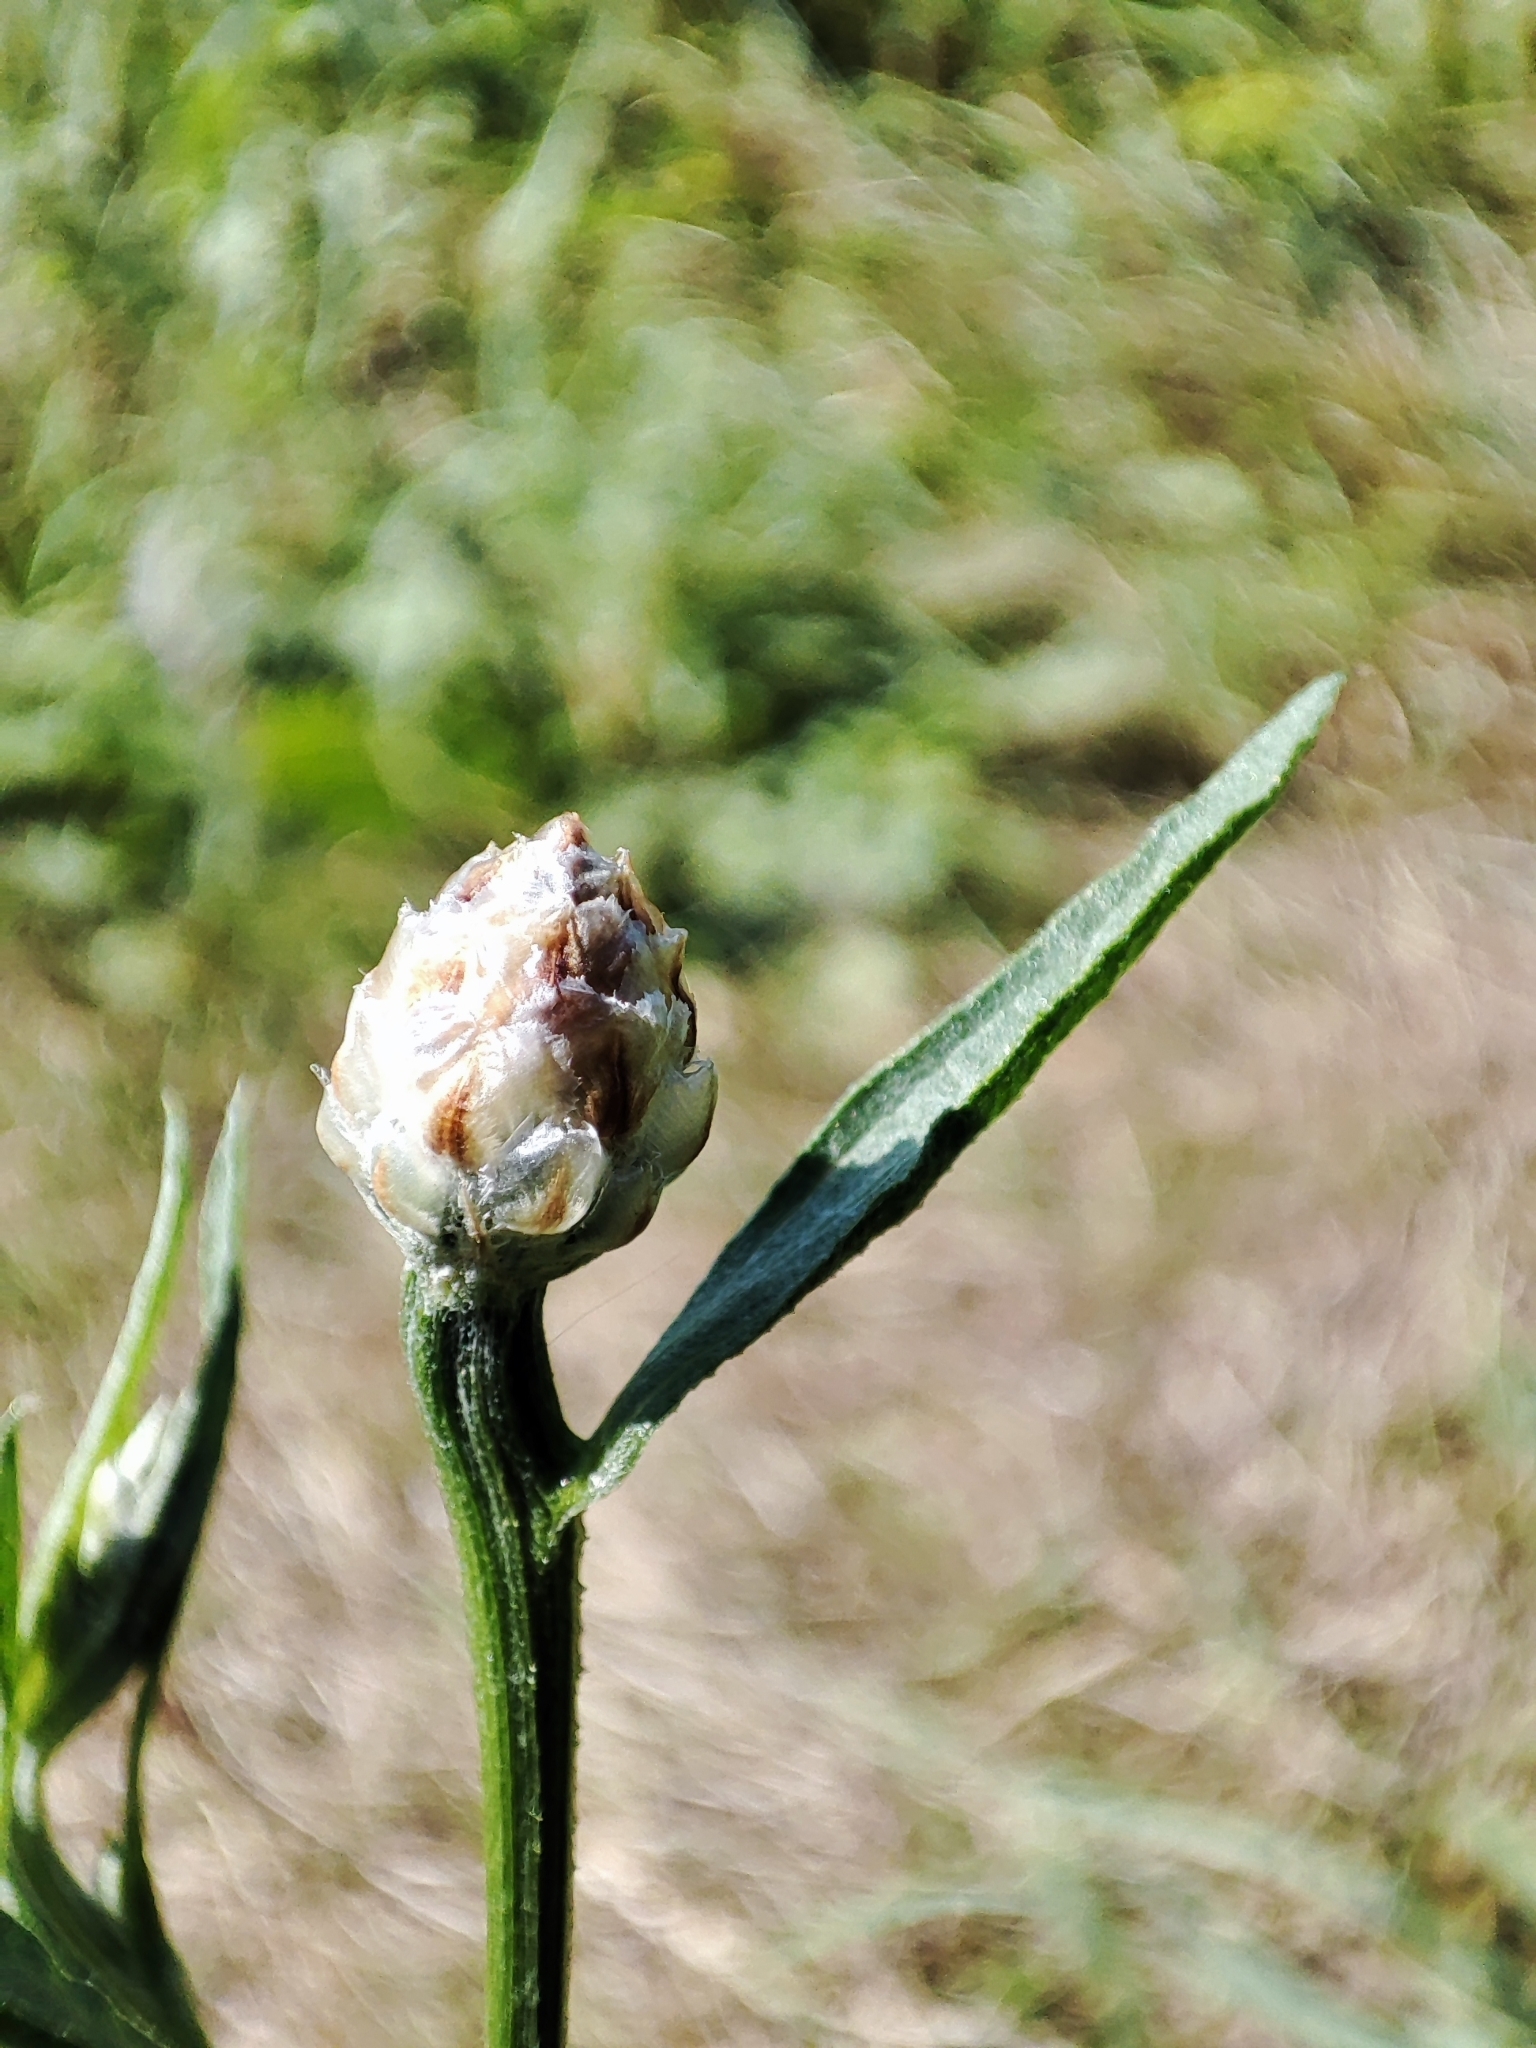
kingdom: Plantae
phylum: Tracheophyta
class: Magnoliopsida
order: Asterales
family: Asteraceae
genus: Centaurea
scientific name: Centaurea jacea
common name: Brown knapweed
